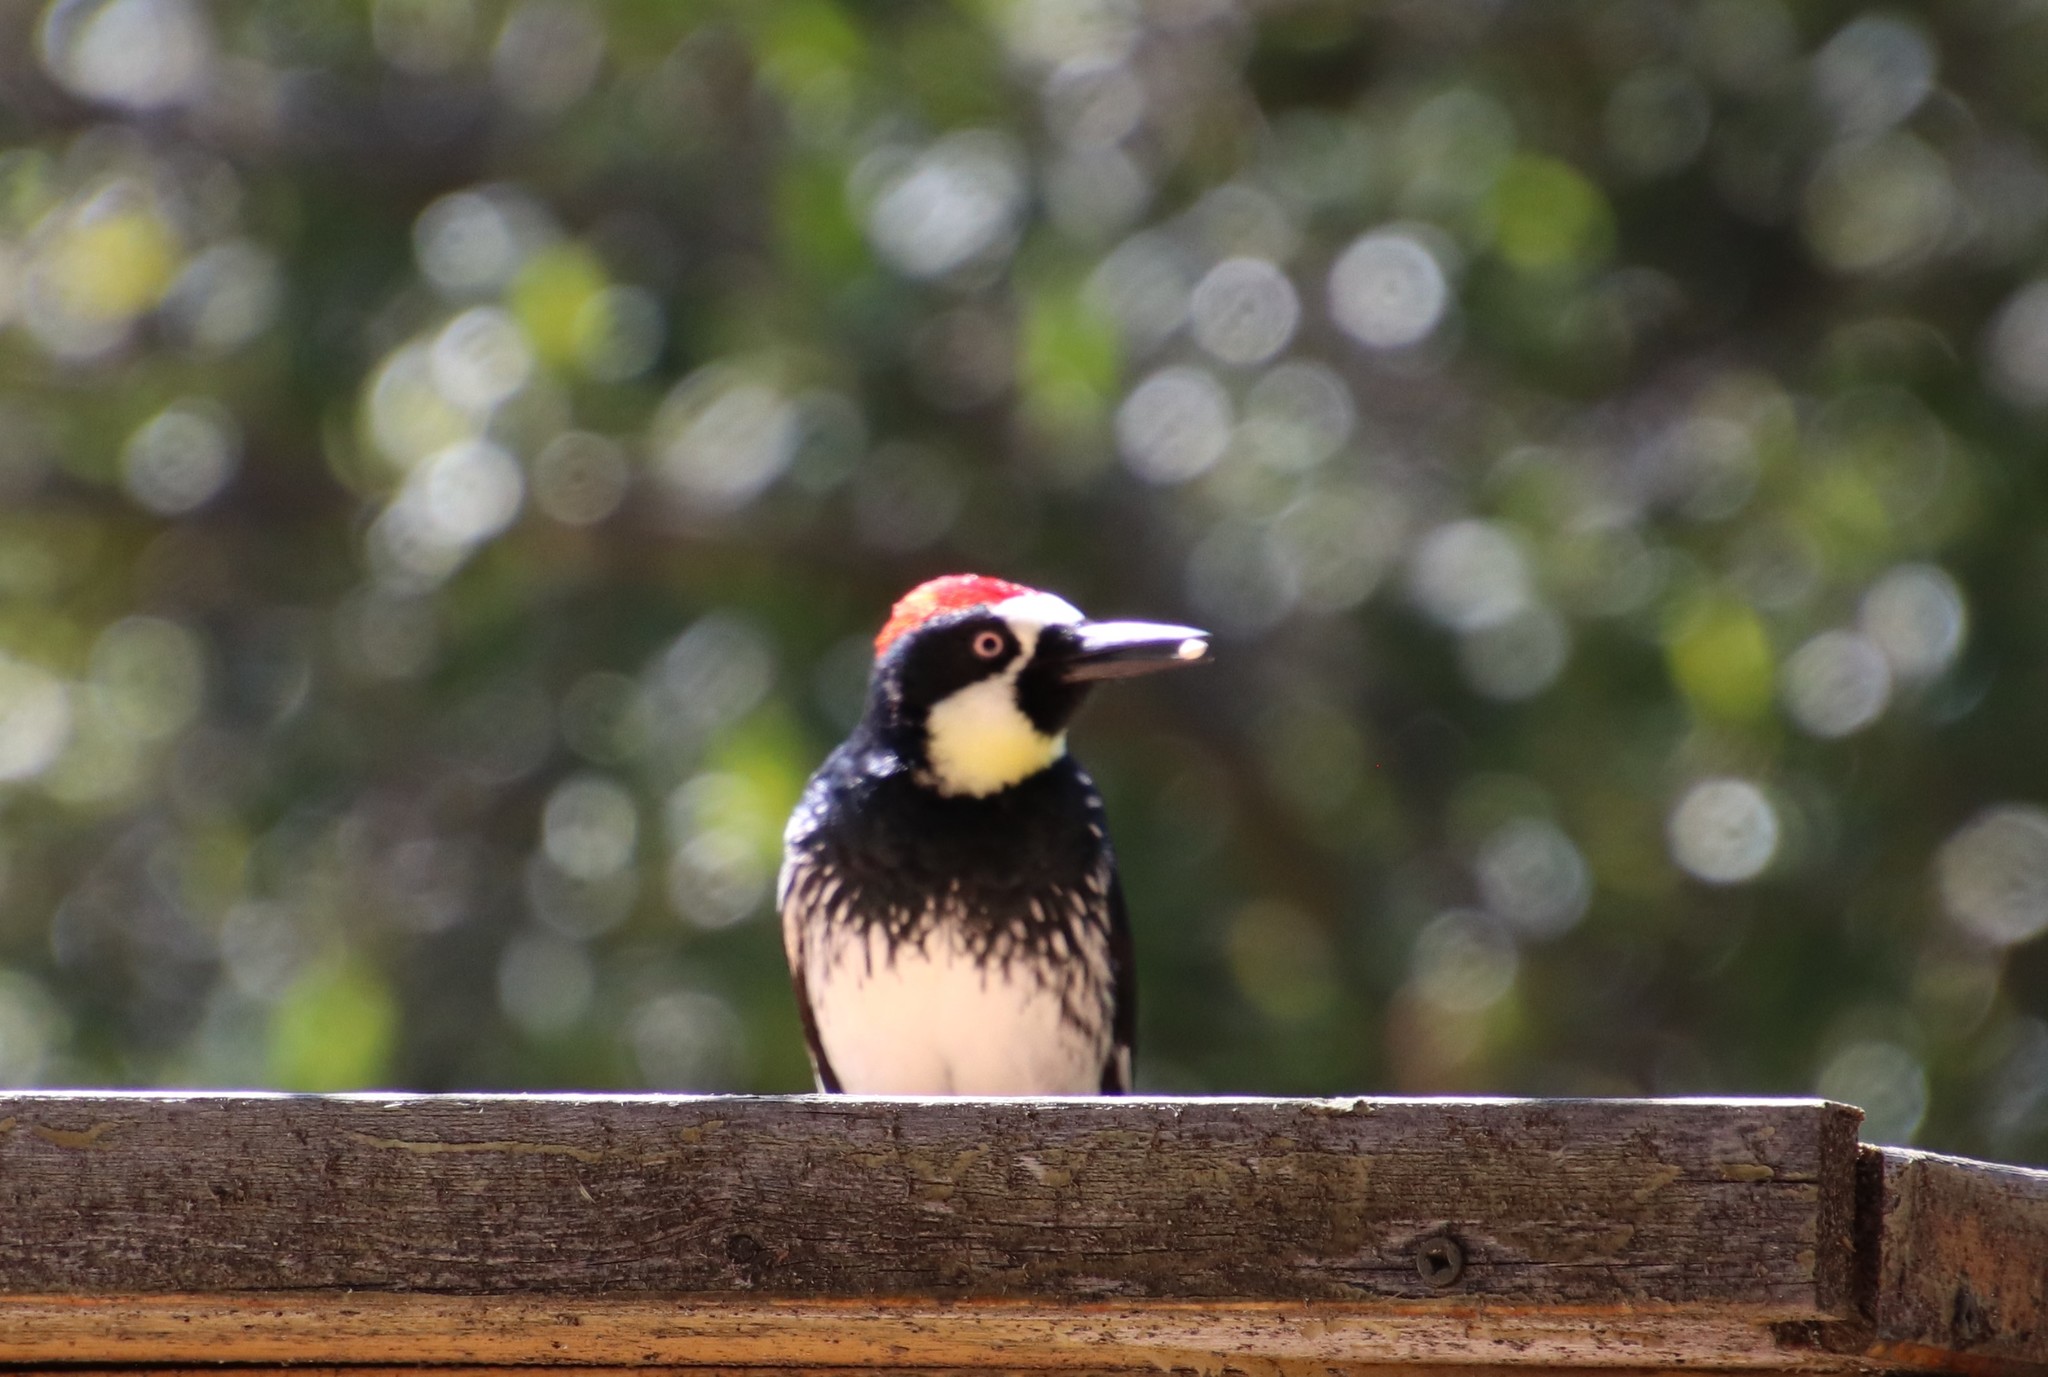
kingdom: Animalia
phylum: Chordata
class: Aves
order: Piciformes
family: Picidae
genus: Melanerpes
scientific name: Melanerpes formicivorus
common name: Acorn woodpecker
